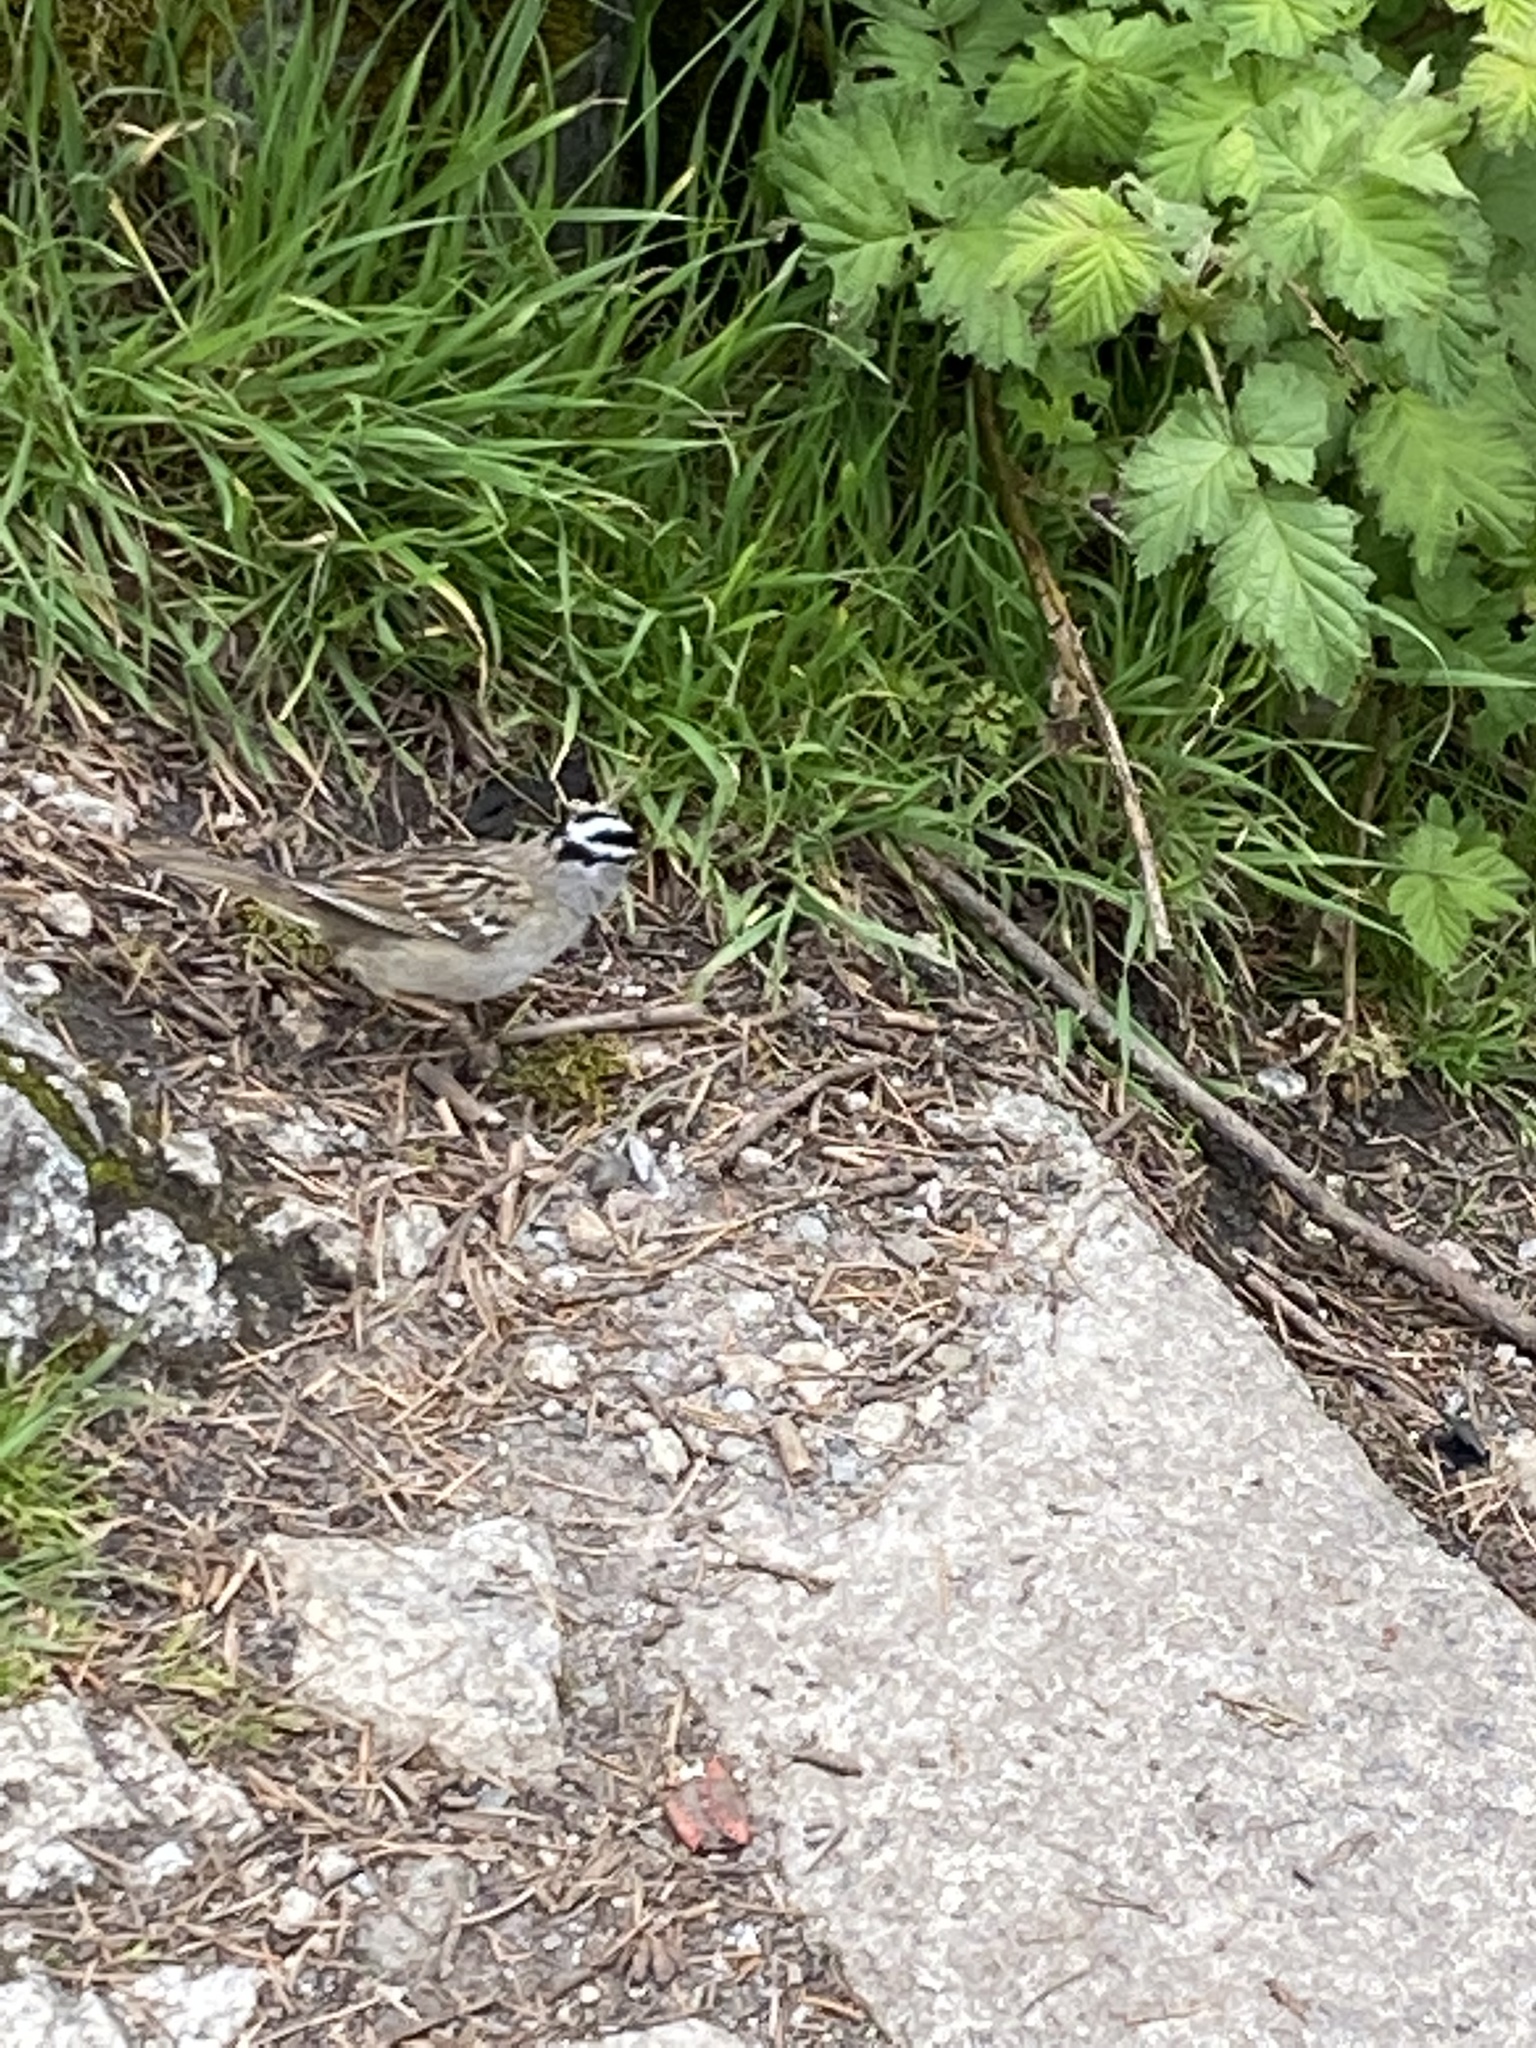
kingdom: Animalia
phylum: Chordata
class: Aves
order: Passeriformes
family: Passerellidae
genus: Zonotrichia
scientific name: Zonotrichia leucophrys
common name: White-crowned sparrow
